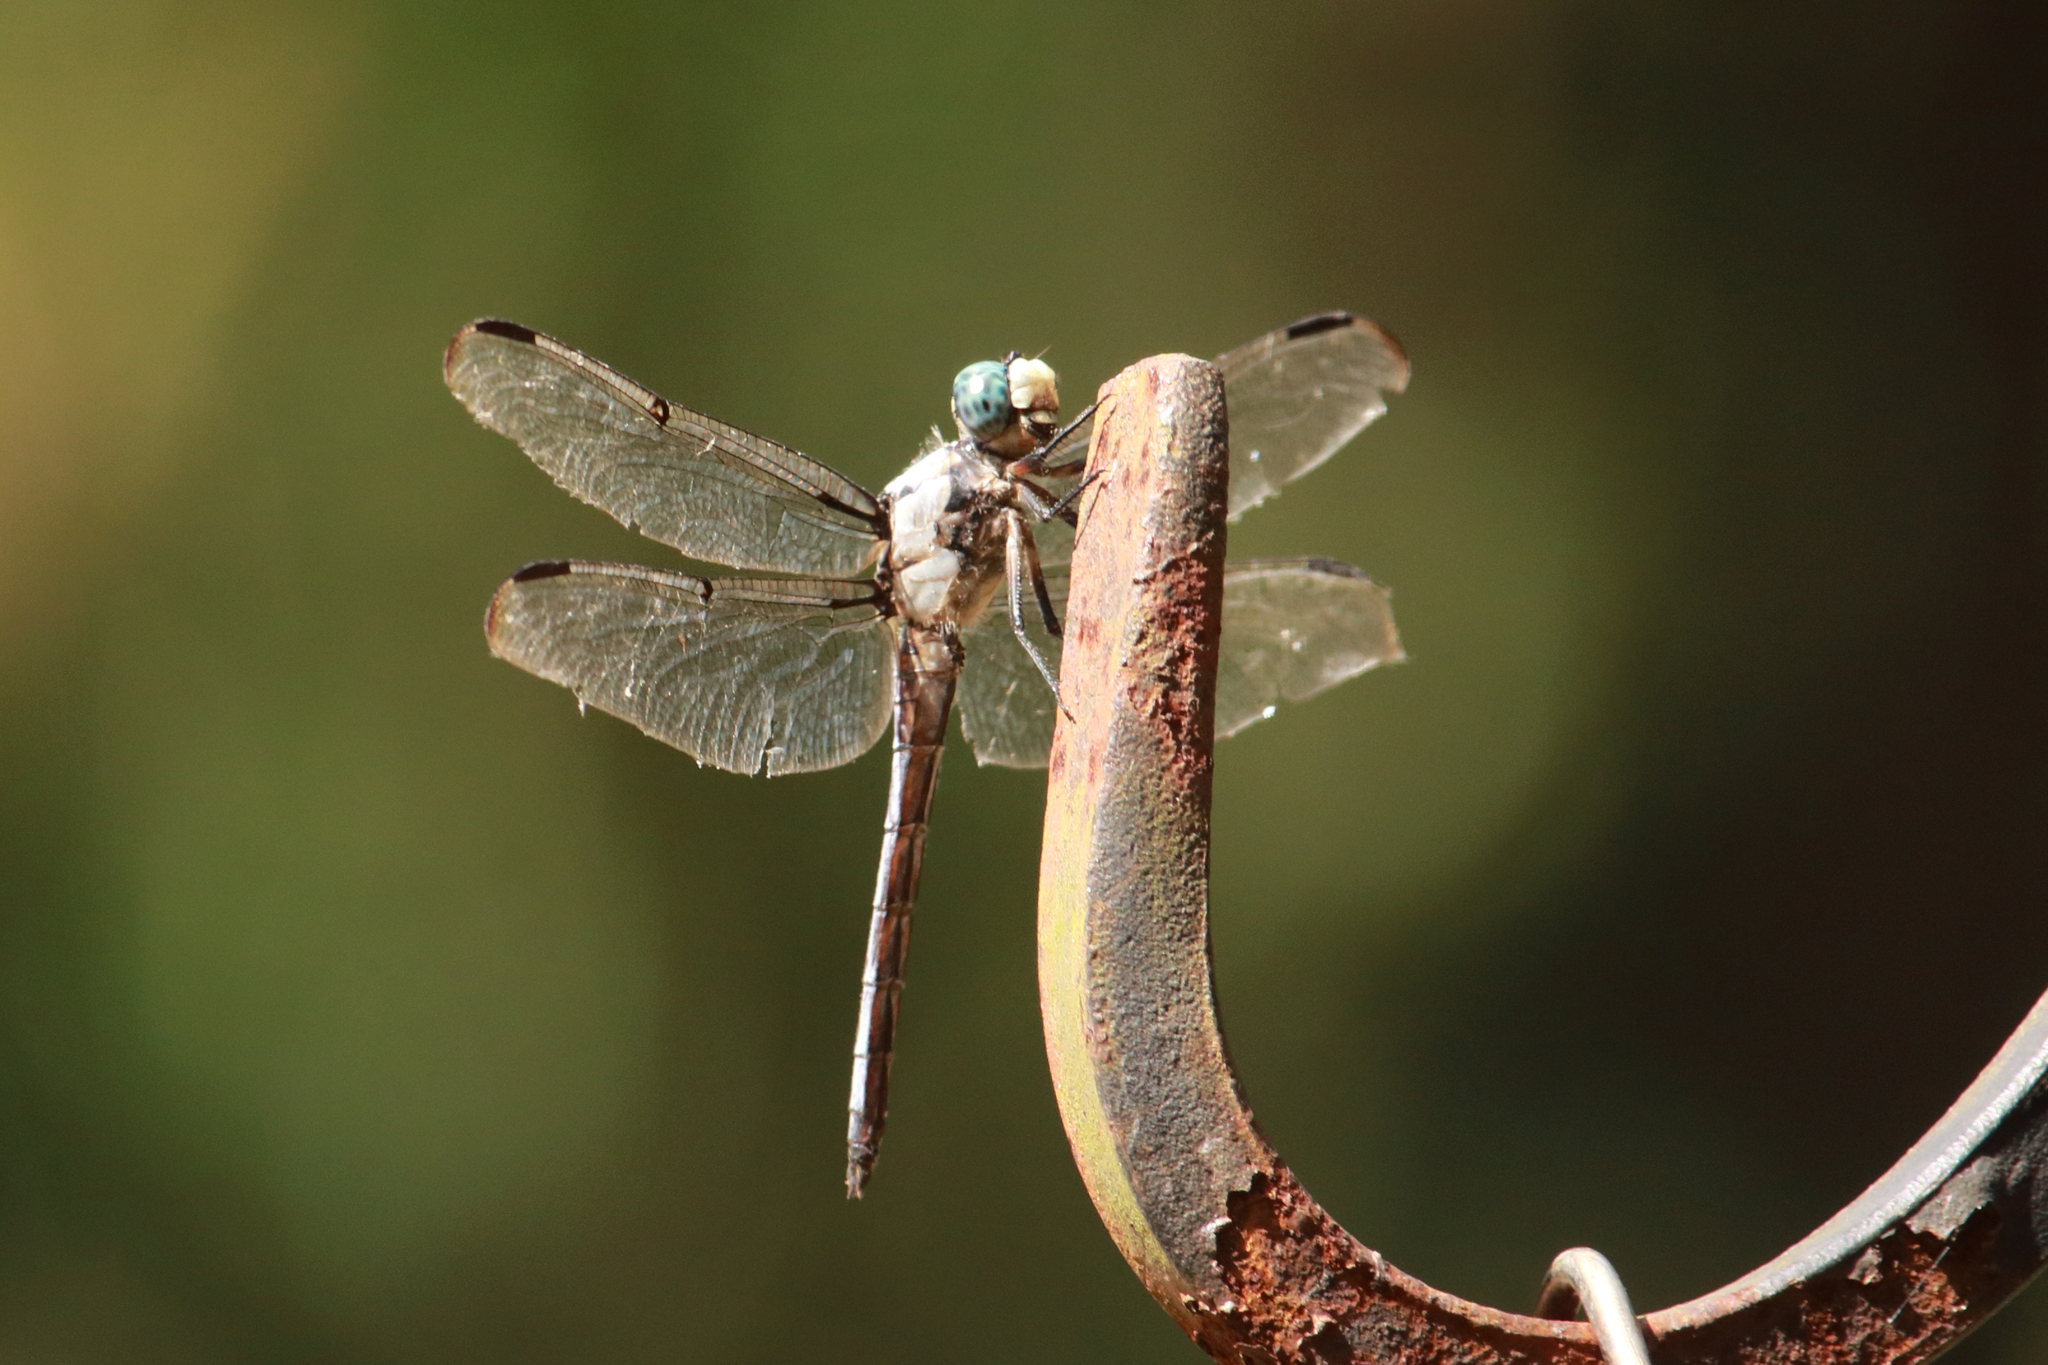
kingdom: Animalia
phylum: Arthropoda
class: Insecta
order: Odonata
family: Libellulidae
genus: Libellula
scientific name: Libellula vibrans
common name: Great blue skimmer
